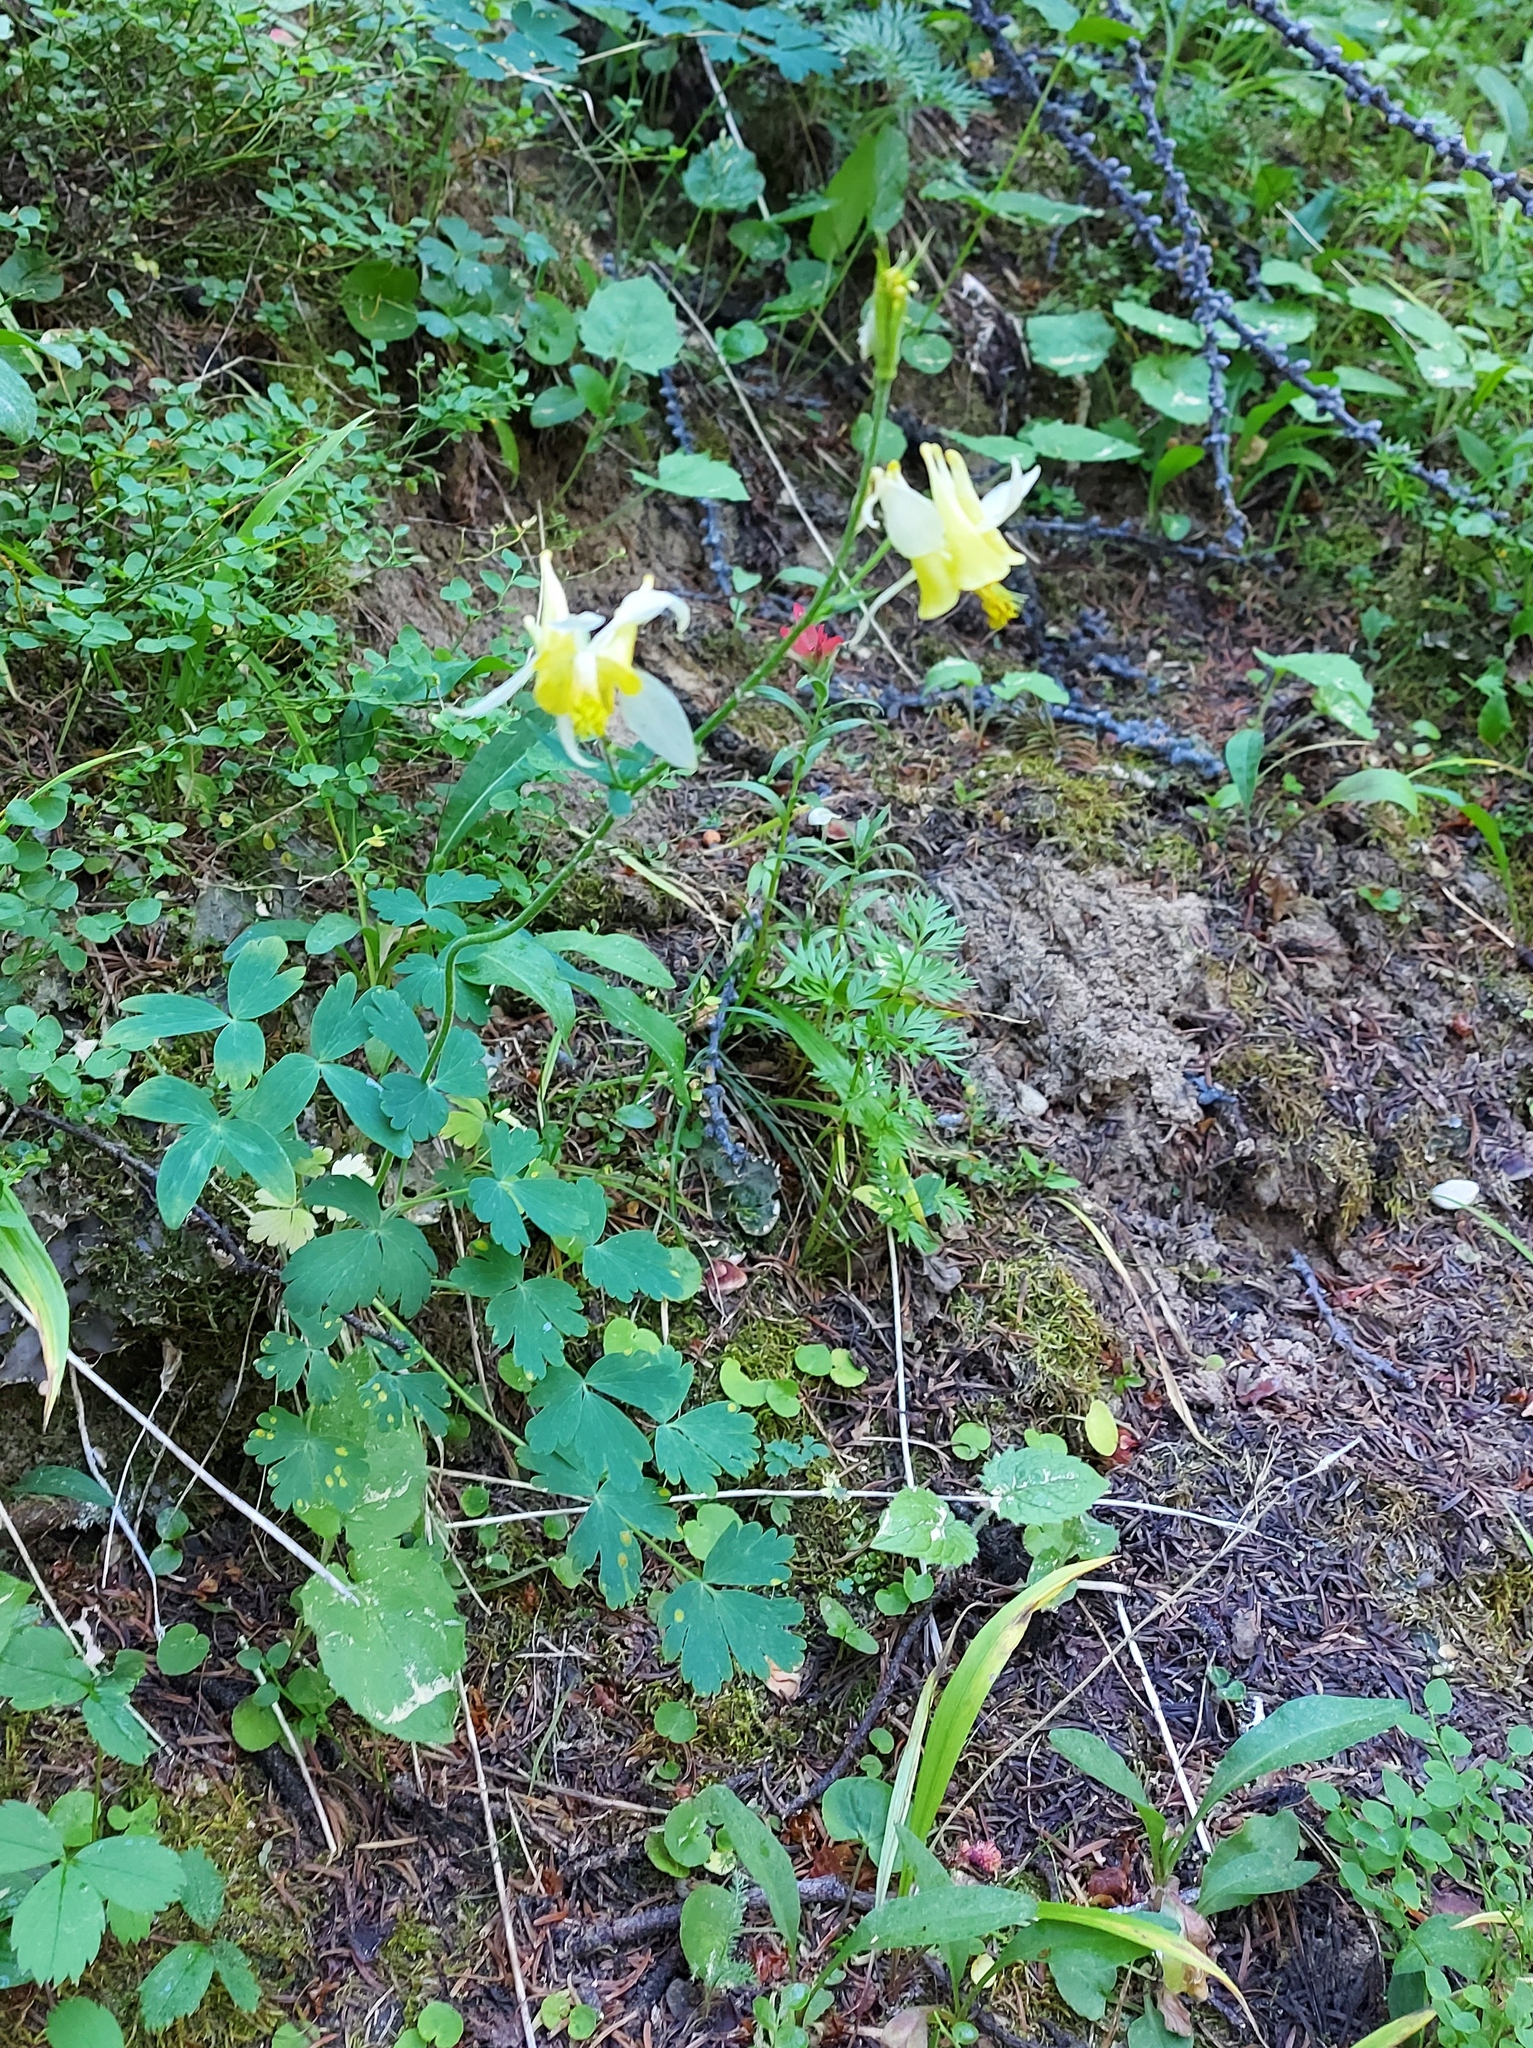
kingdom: Plantae
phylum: Tracheophyta
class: Magnoliopsida
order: Ranunculales
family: Ranunculaceae
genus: Aquilegia
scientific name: Aquilegia flavescens
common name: Yellow columbine
